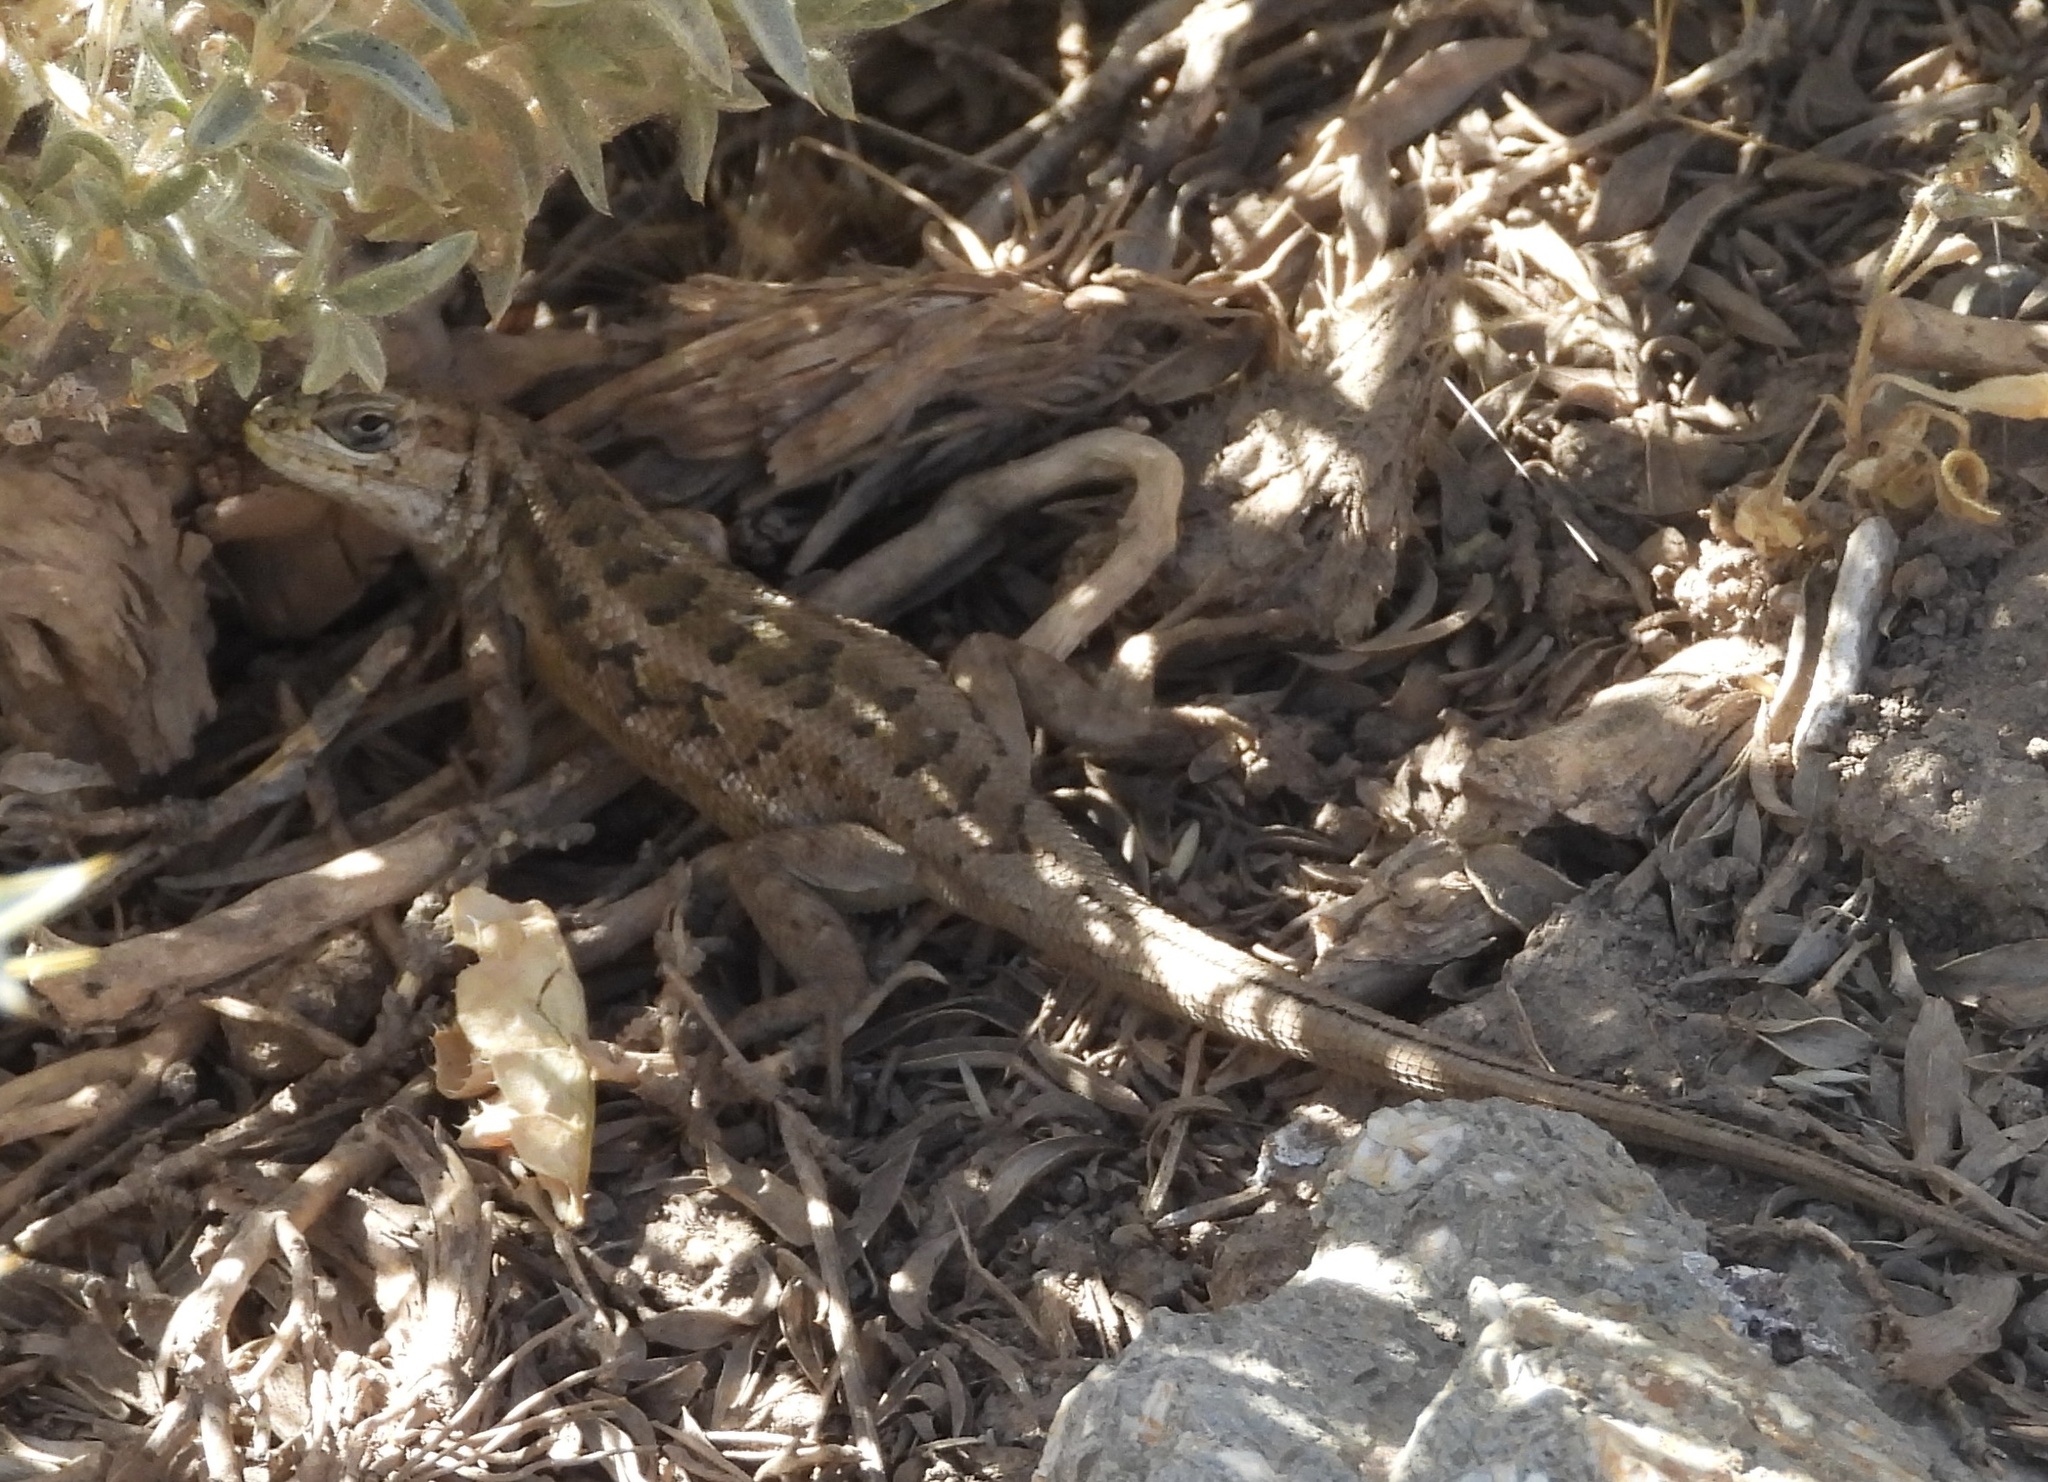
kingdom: Animalia
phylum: Chordata
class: Squamata
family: Liolaemidae
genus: Liolaemus
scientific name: Liolaemus moradoensis
